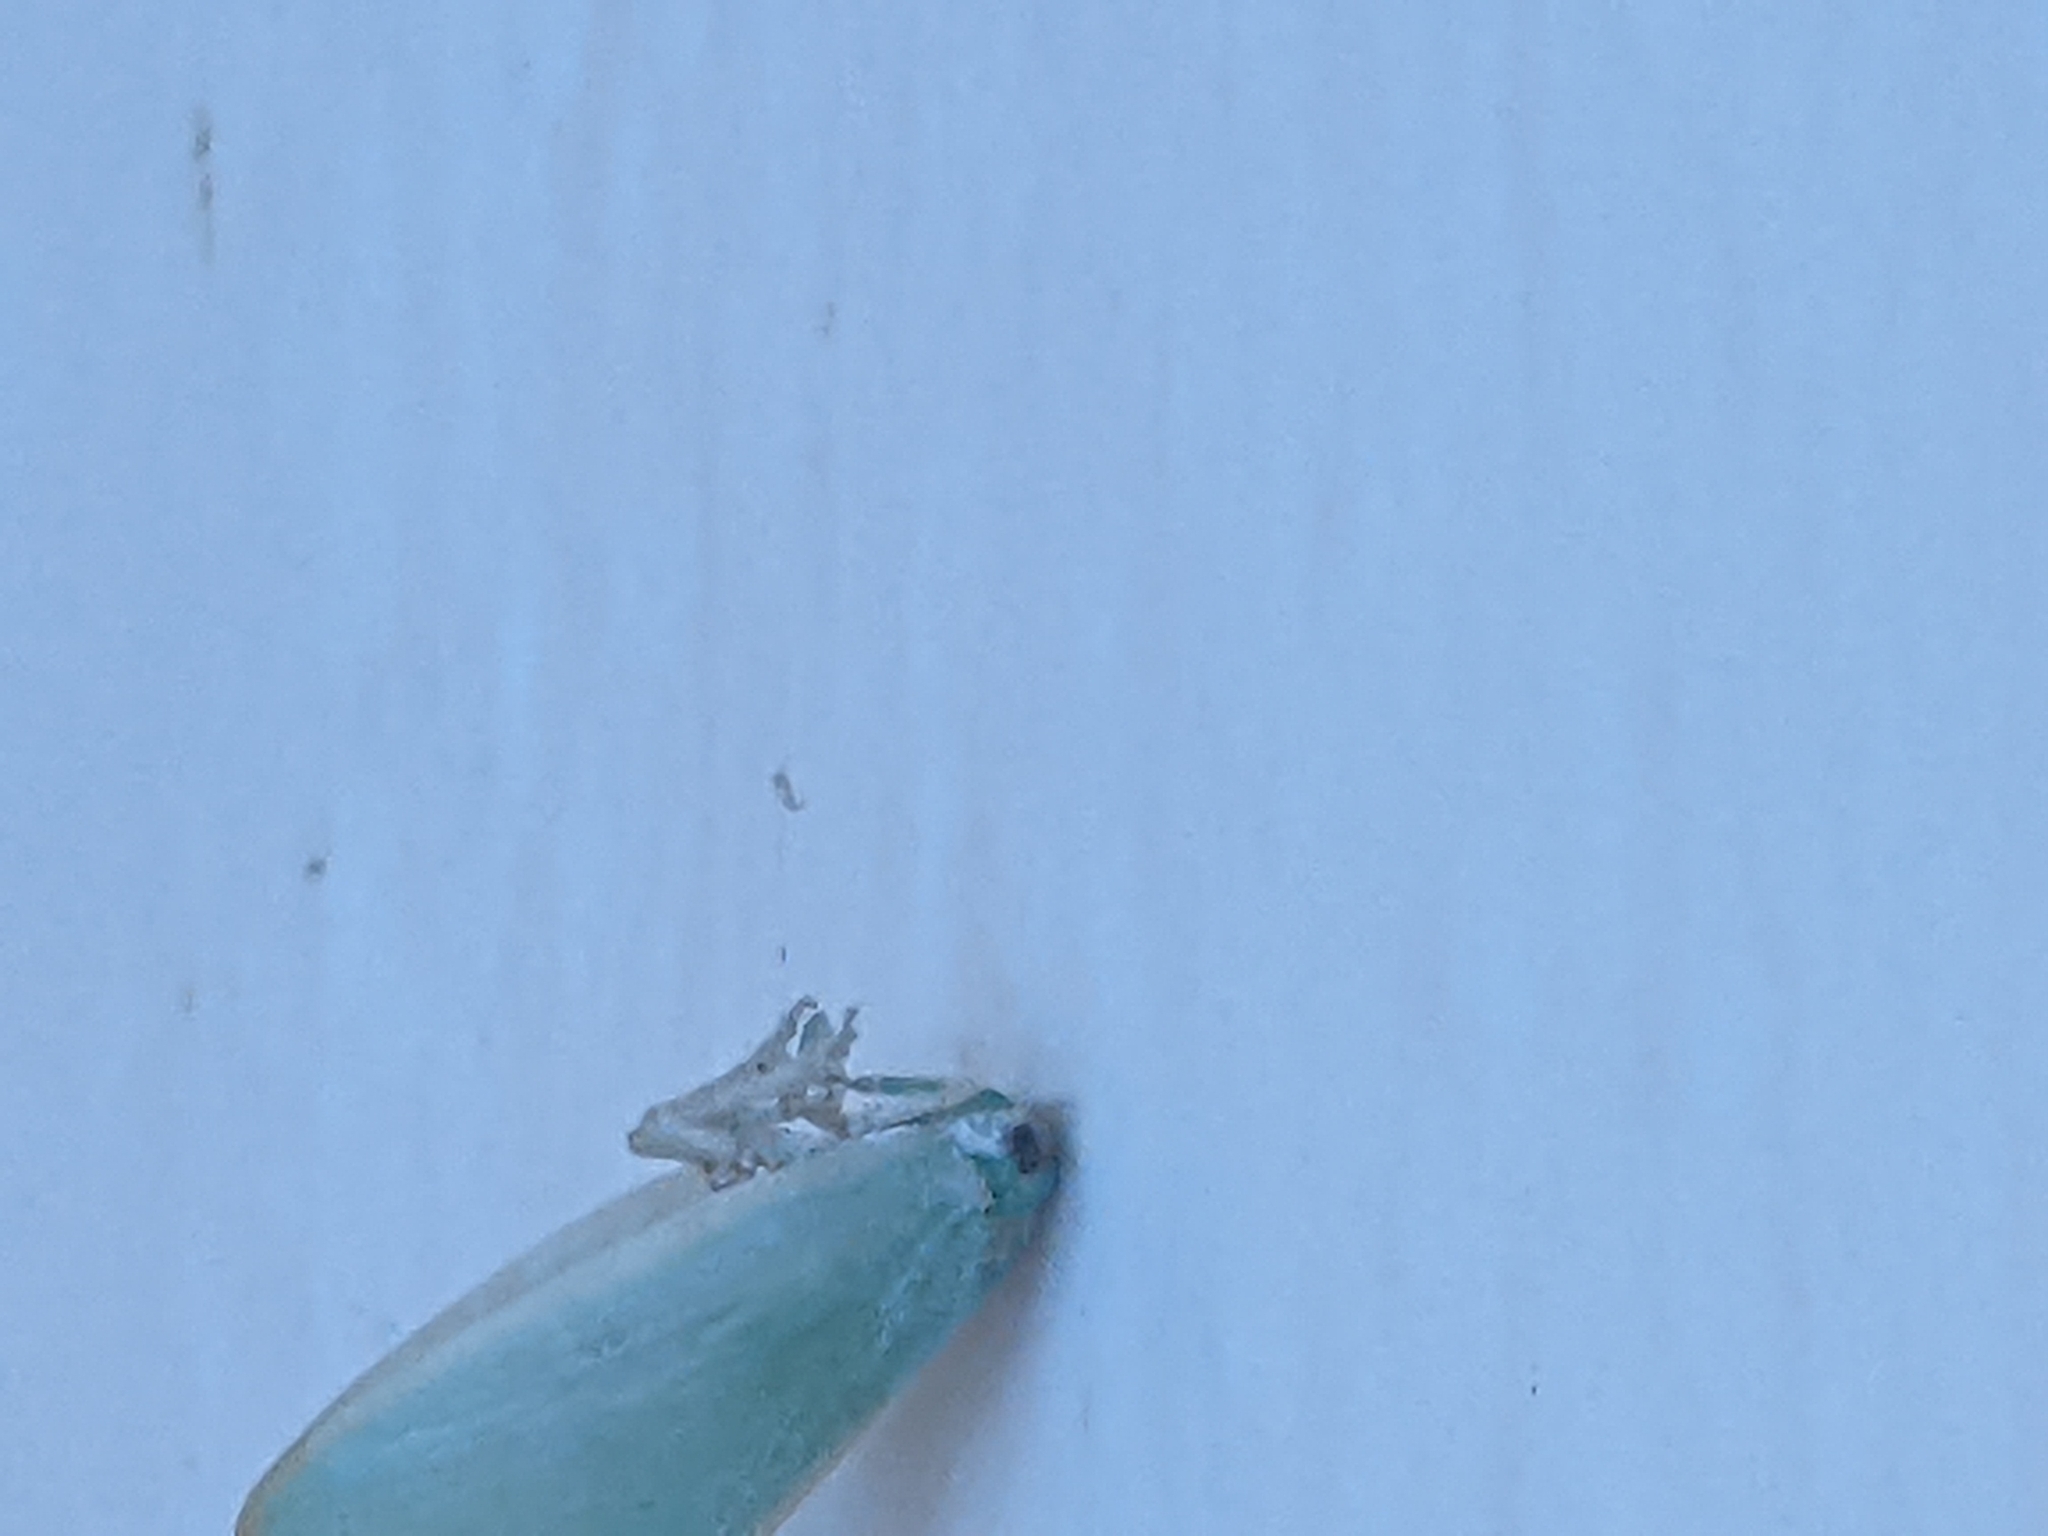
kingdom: Animalia
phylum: Arthropoda
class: Insecta
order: Hemiptera
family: Flatidae
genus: Ormenoides
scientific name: Ormenoides venusta
